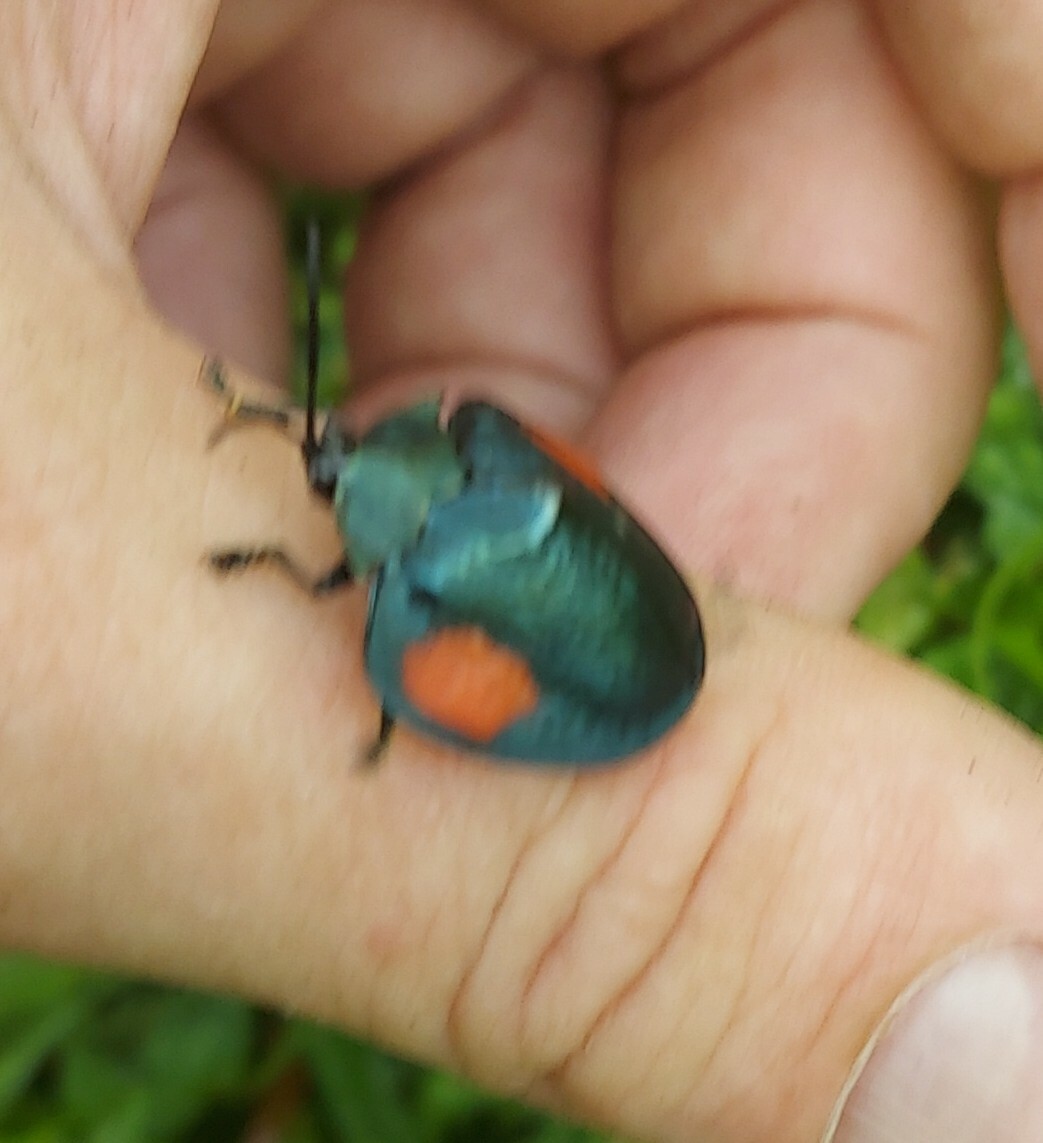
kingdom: Animalia
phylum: Arthropoda
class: Insecta
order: Coleoptera
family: Chrysomelidae
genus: Stolas
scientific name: Stolas
